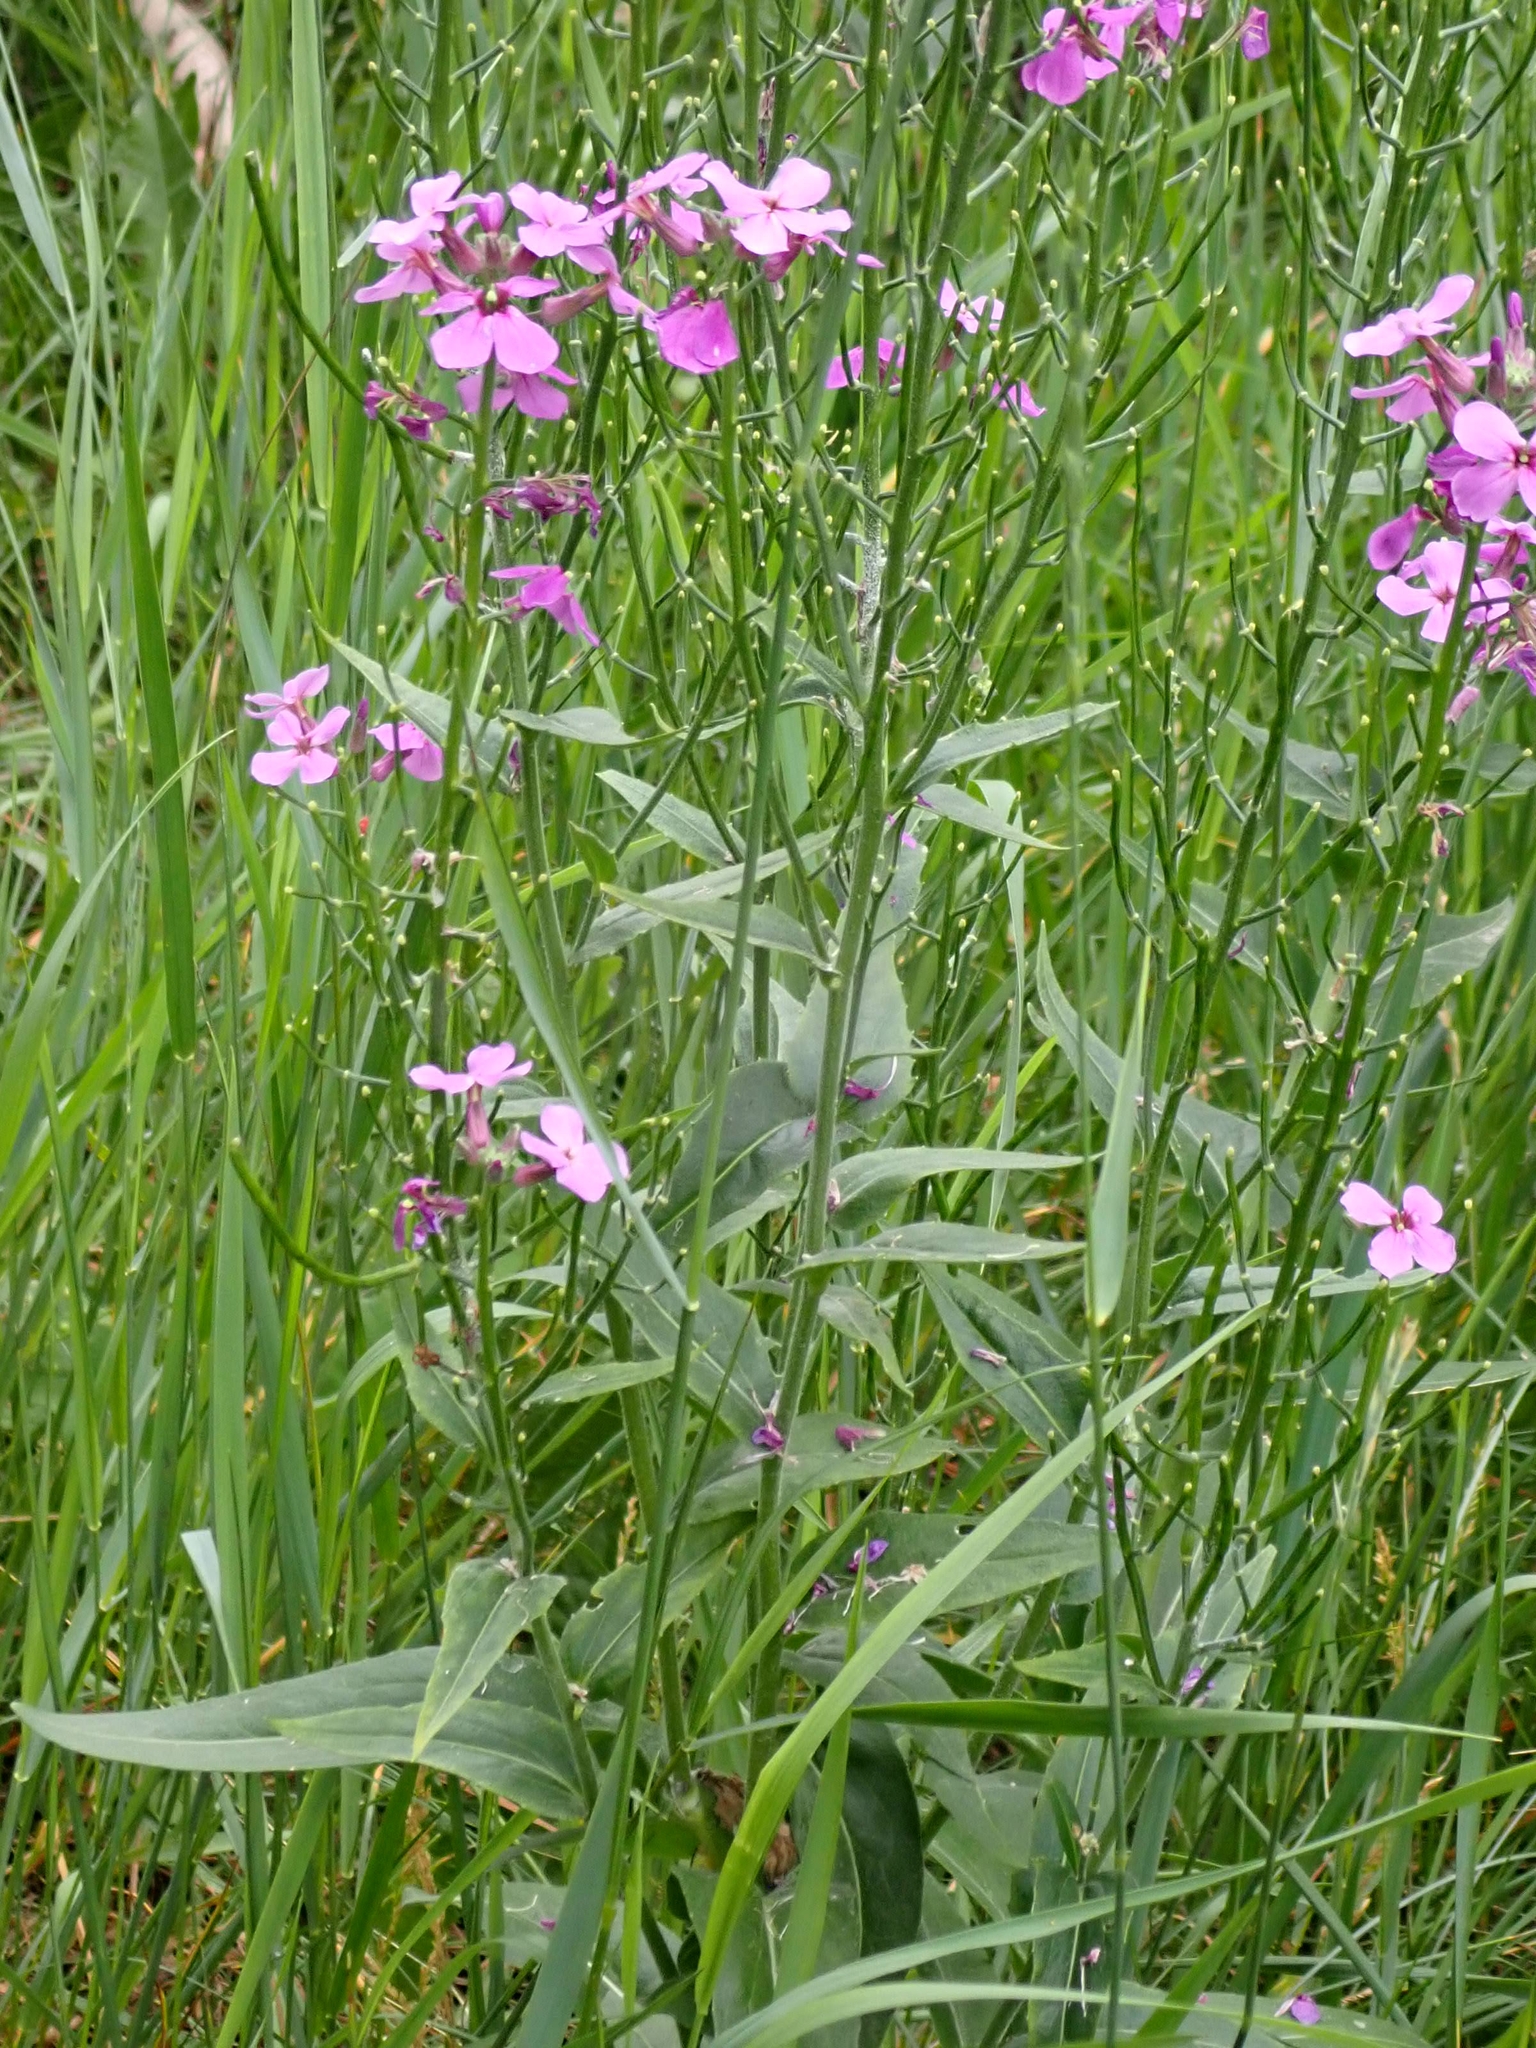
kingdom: Plantae
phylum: Tracheophyta
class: Magnoliopsida
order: Brassicales
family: Brassicaceae
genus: Hesperis
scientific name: Hesperis matronalis
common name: Dame's-violet
